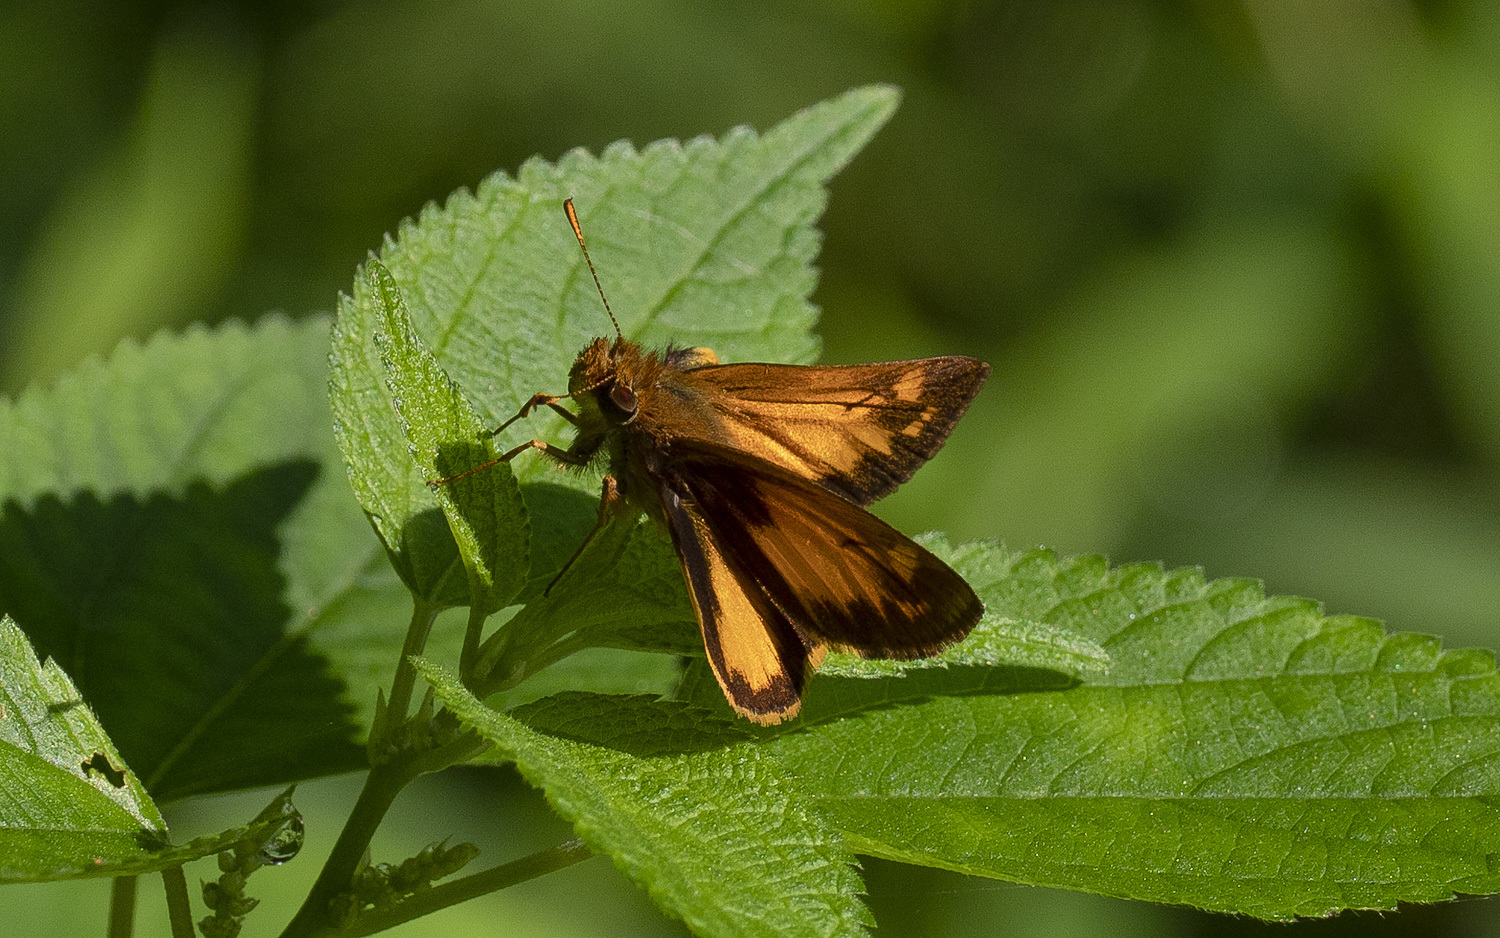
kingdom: Animalia
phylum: Arthropoda
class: Insecta
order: Lepidoptera
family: Hesperiidae
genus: Lon
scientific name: Lon zabulon
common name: Zabulon skipper
